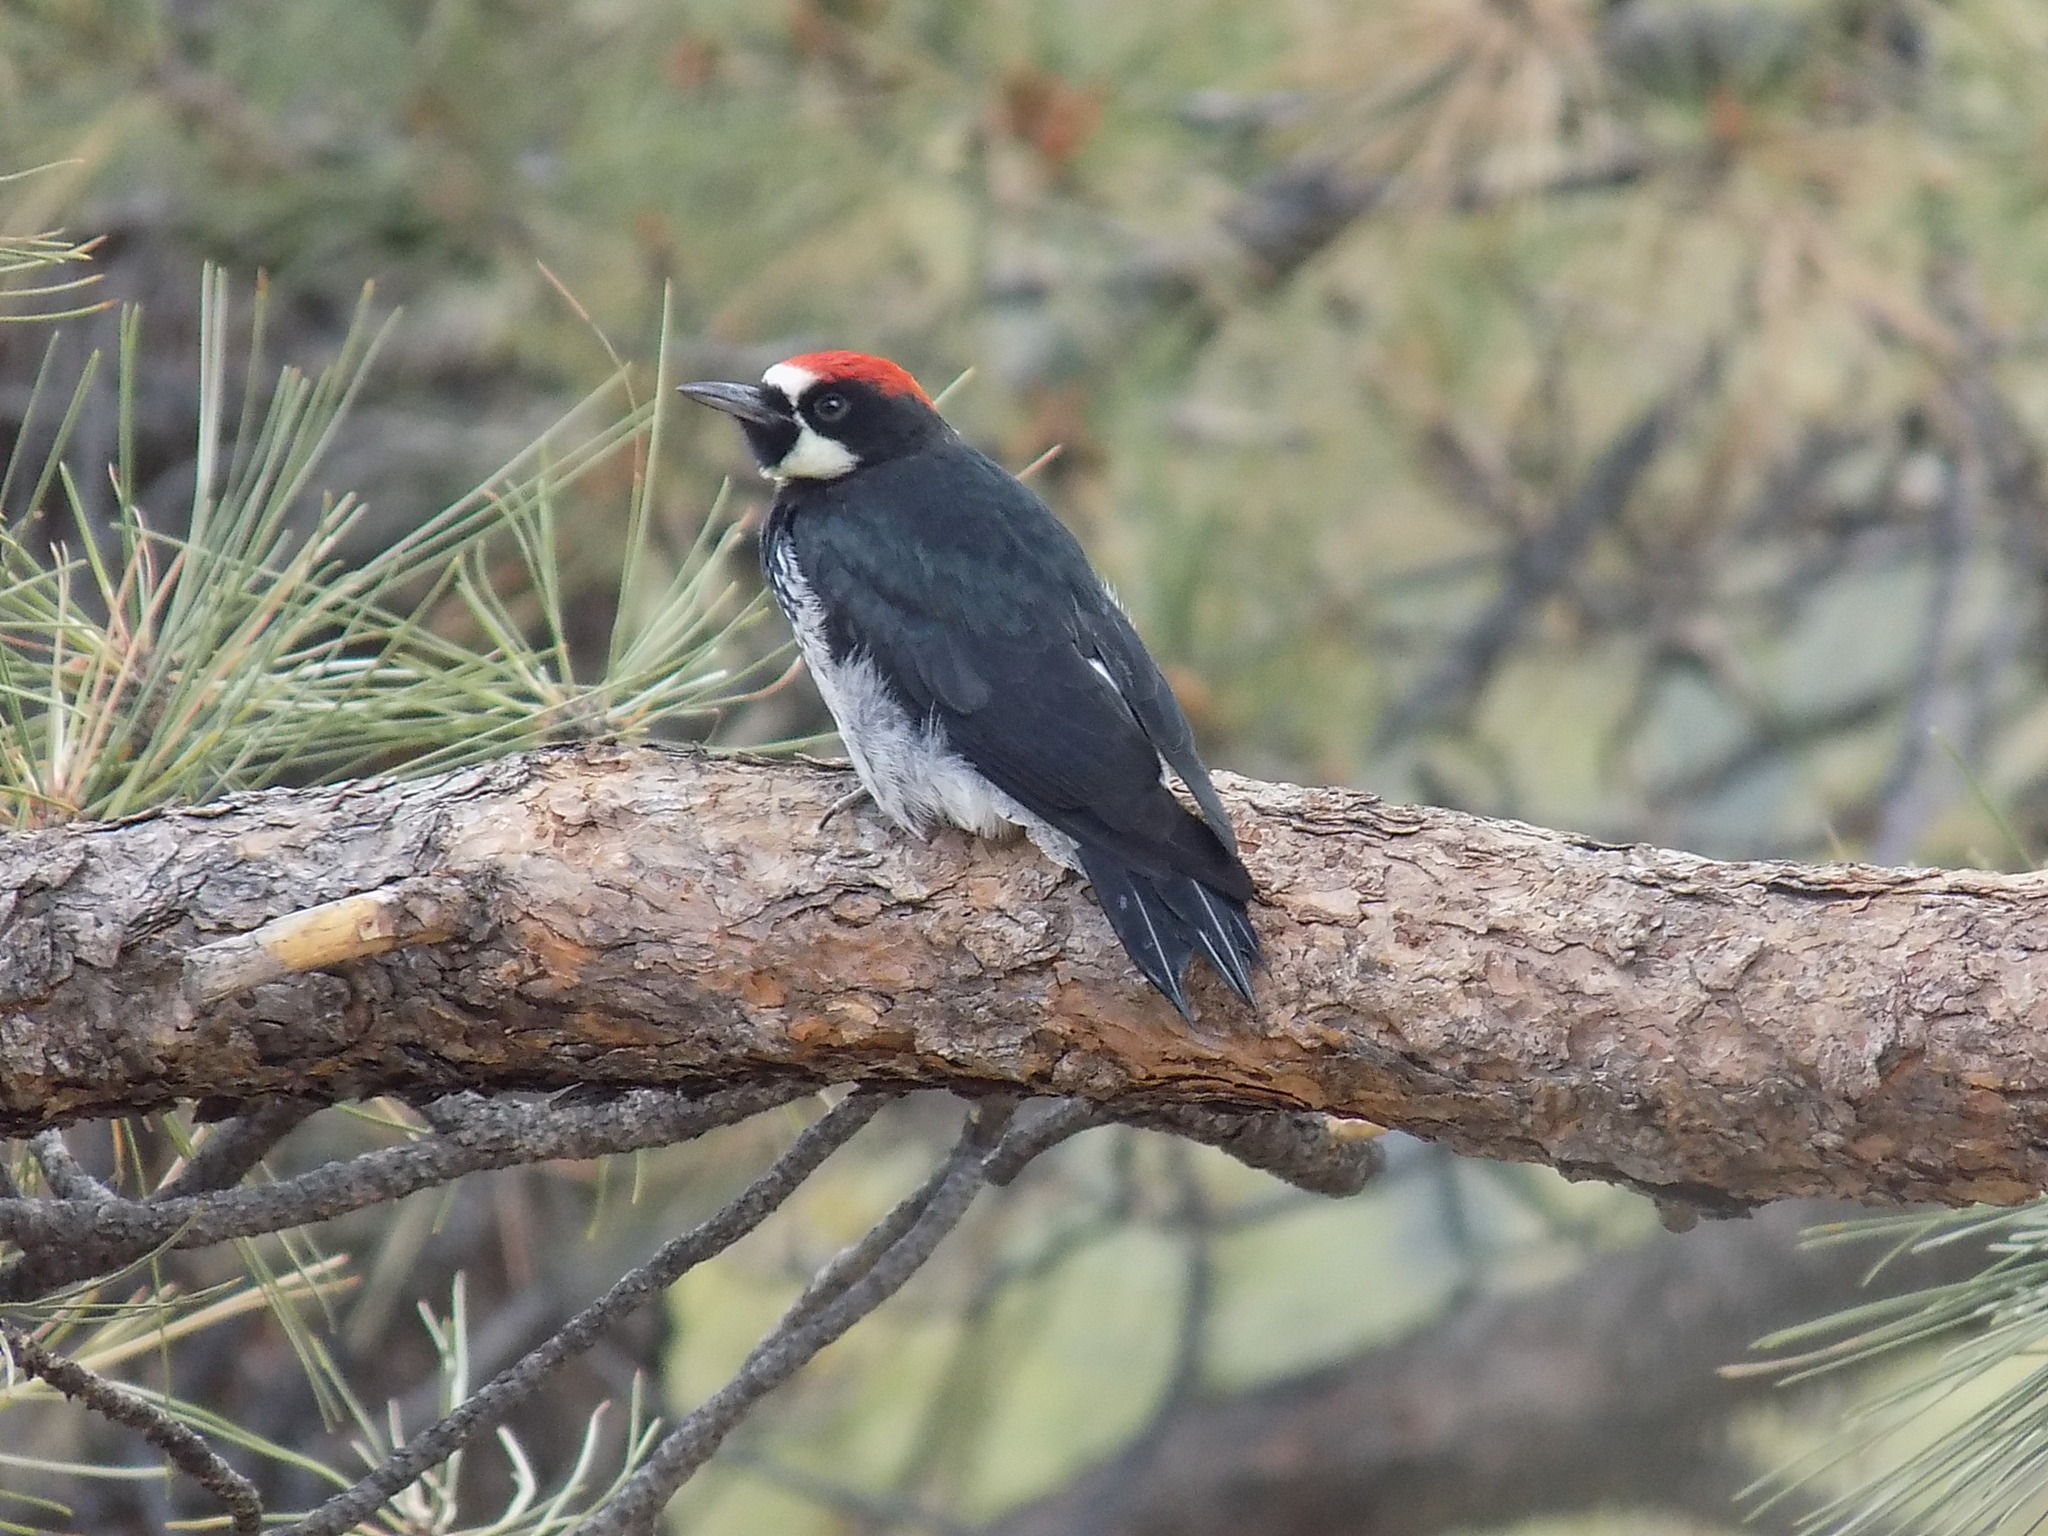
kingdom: Animalia
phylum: Chordata
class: Aves
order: Piciformes
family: Picidae
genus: Melanerpes
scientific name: Melanerpes formicivorus
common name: Acorn woodpecker
